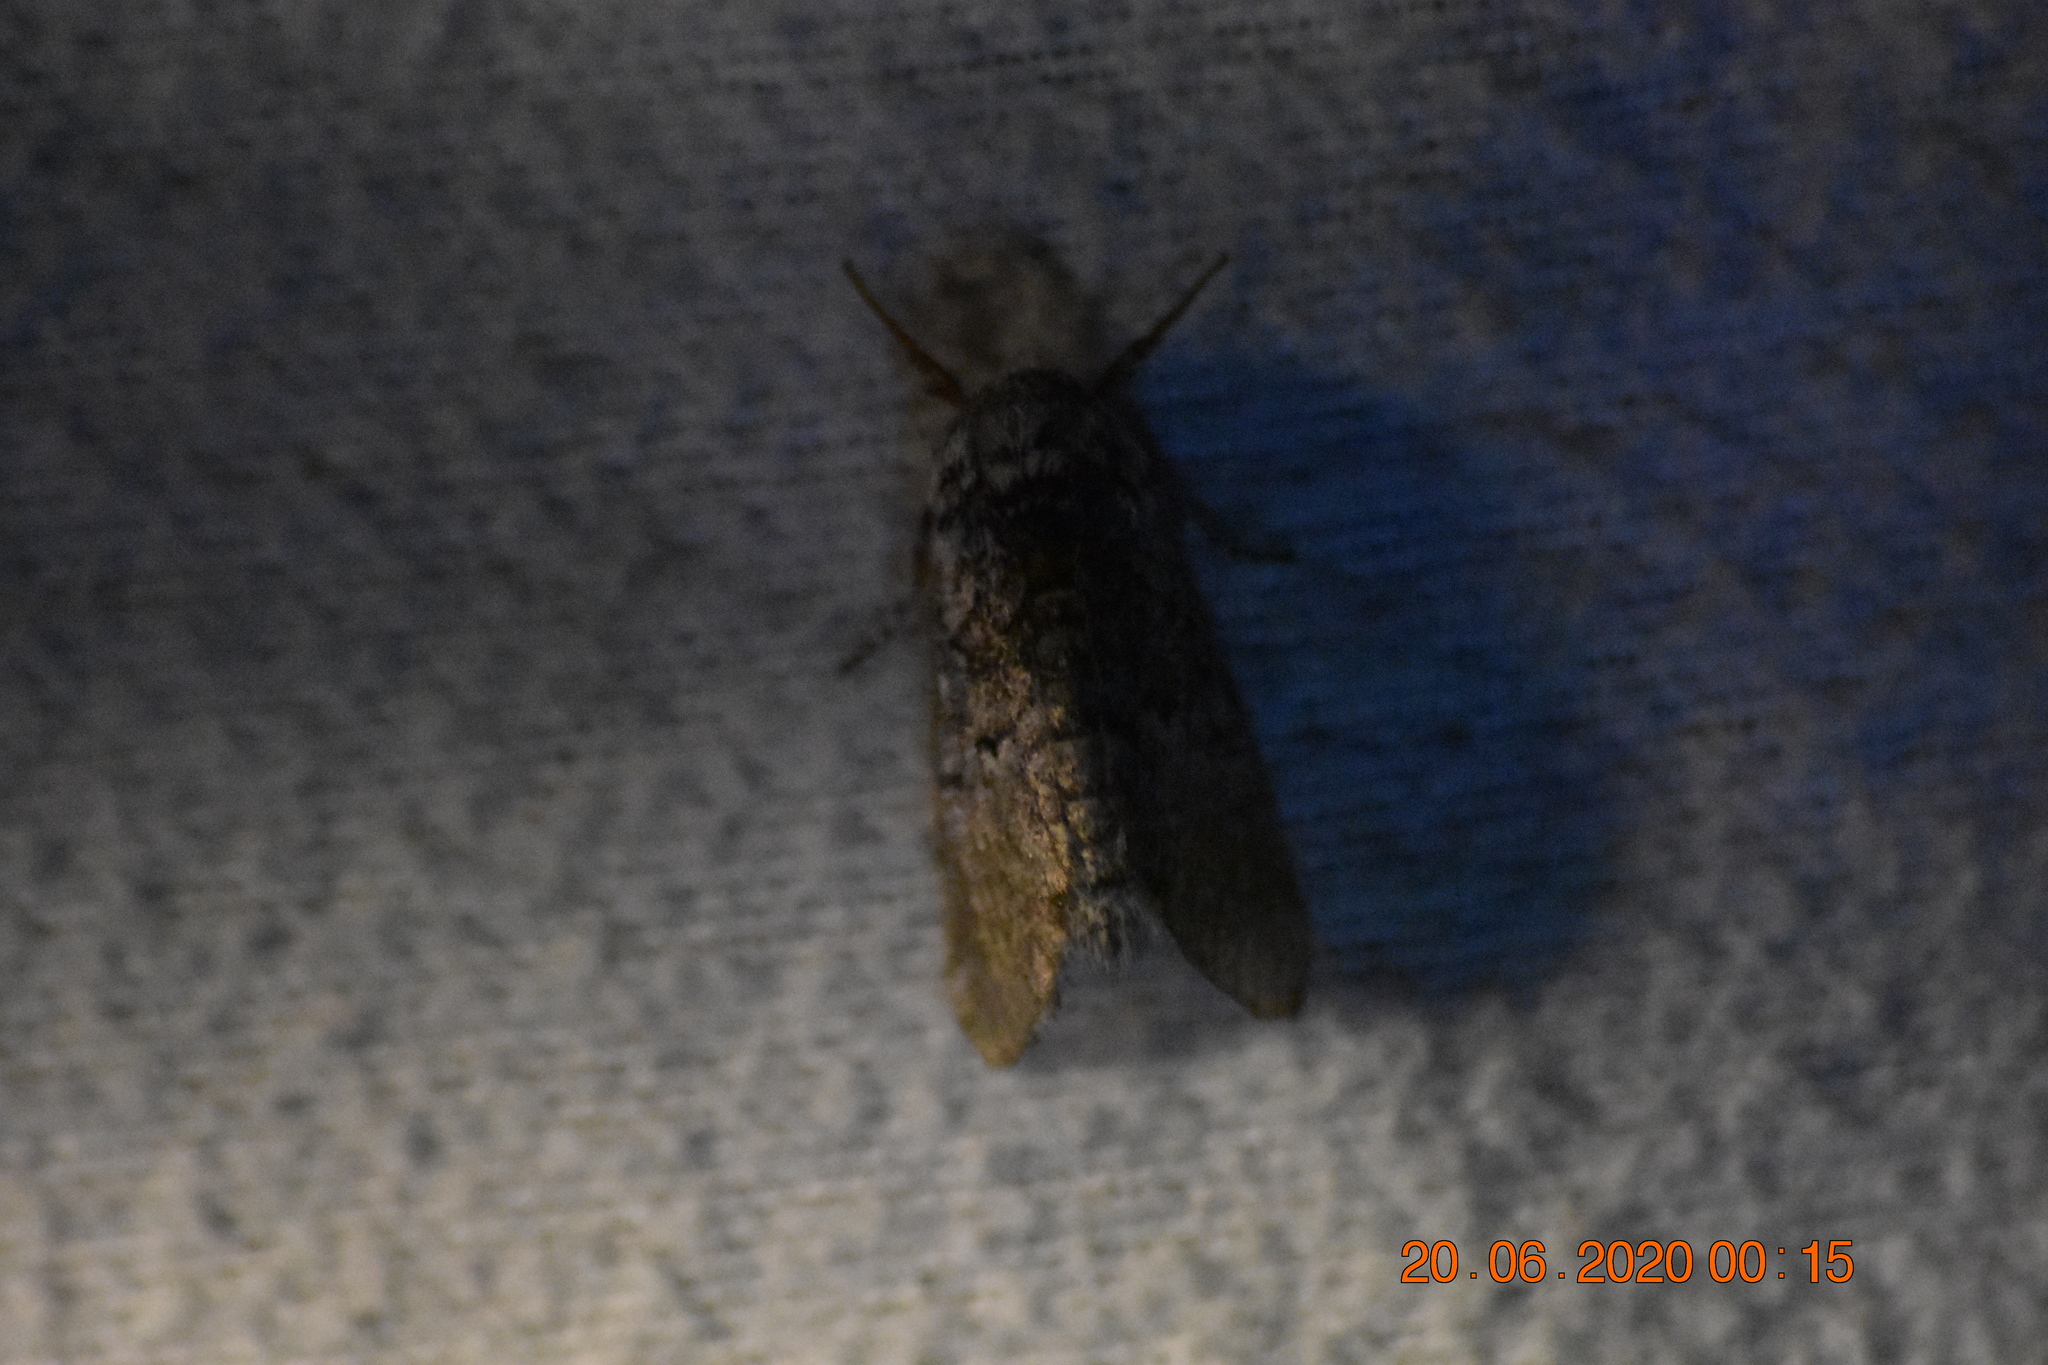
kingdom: Animalia
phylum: Arthropoda
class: Insecta
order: Lepidoptera
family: Noctuidae
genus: Colocasia
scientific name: Colocasia propinquilinea
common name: Close-banded demas
